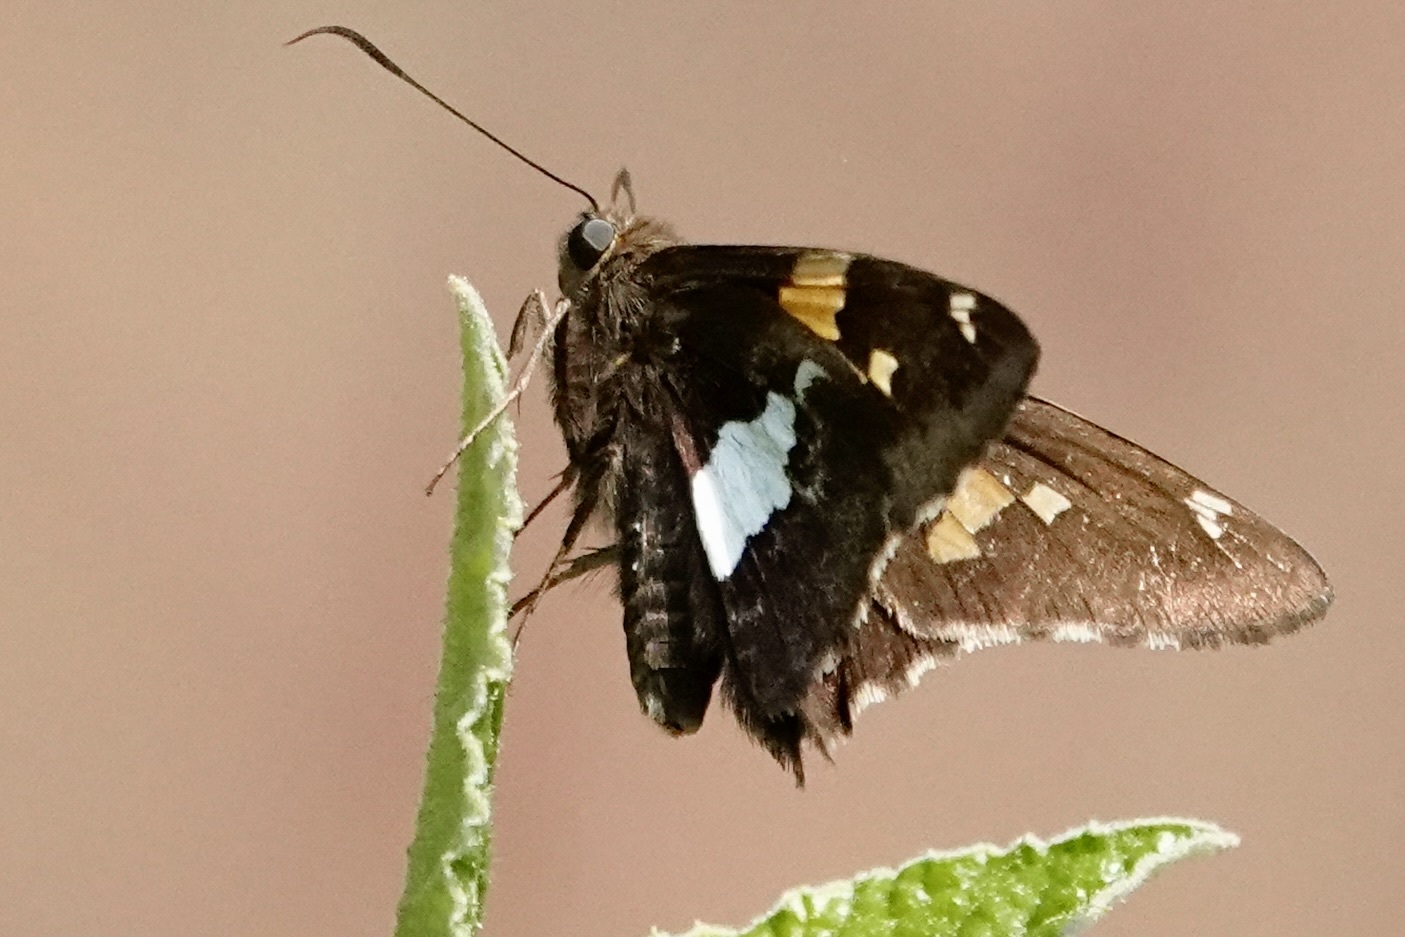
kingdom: Animalia
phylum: Arthropoda
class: Insecta
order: Lepidoptera
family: Hesperiidae
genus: Epargyreus
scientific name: Epargyreus clarus
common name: Silver-spotted skipper
